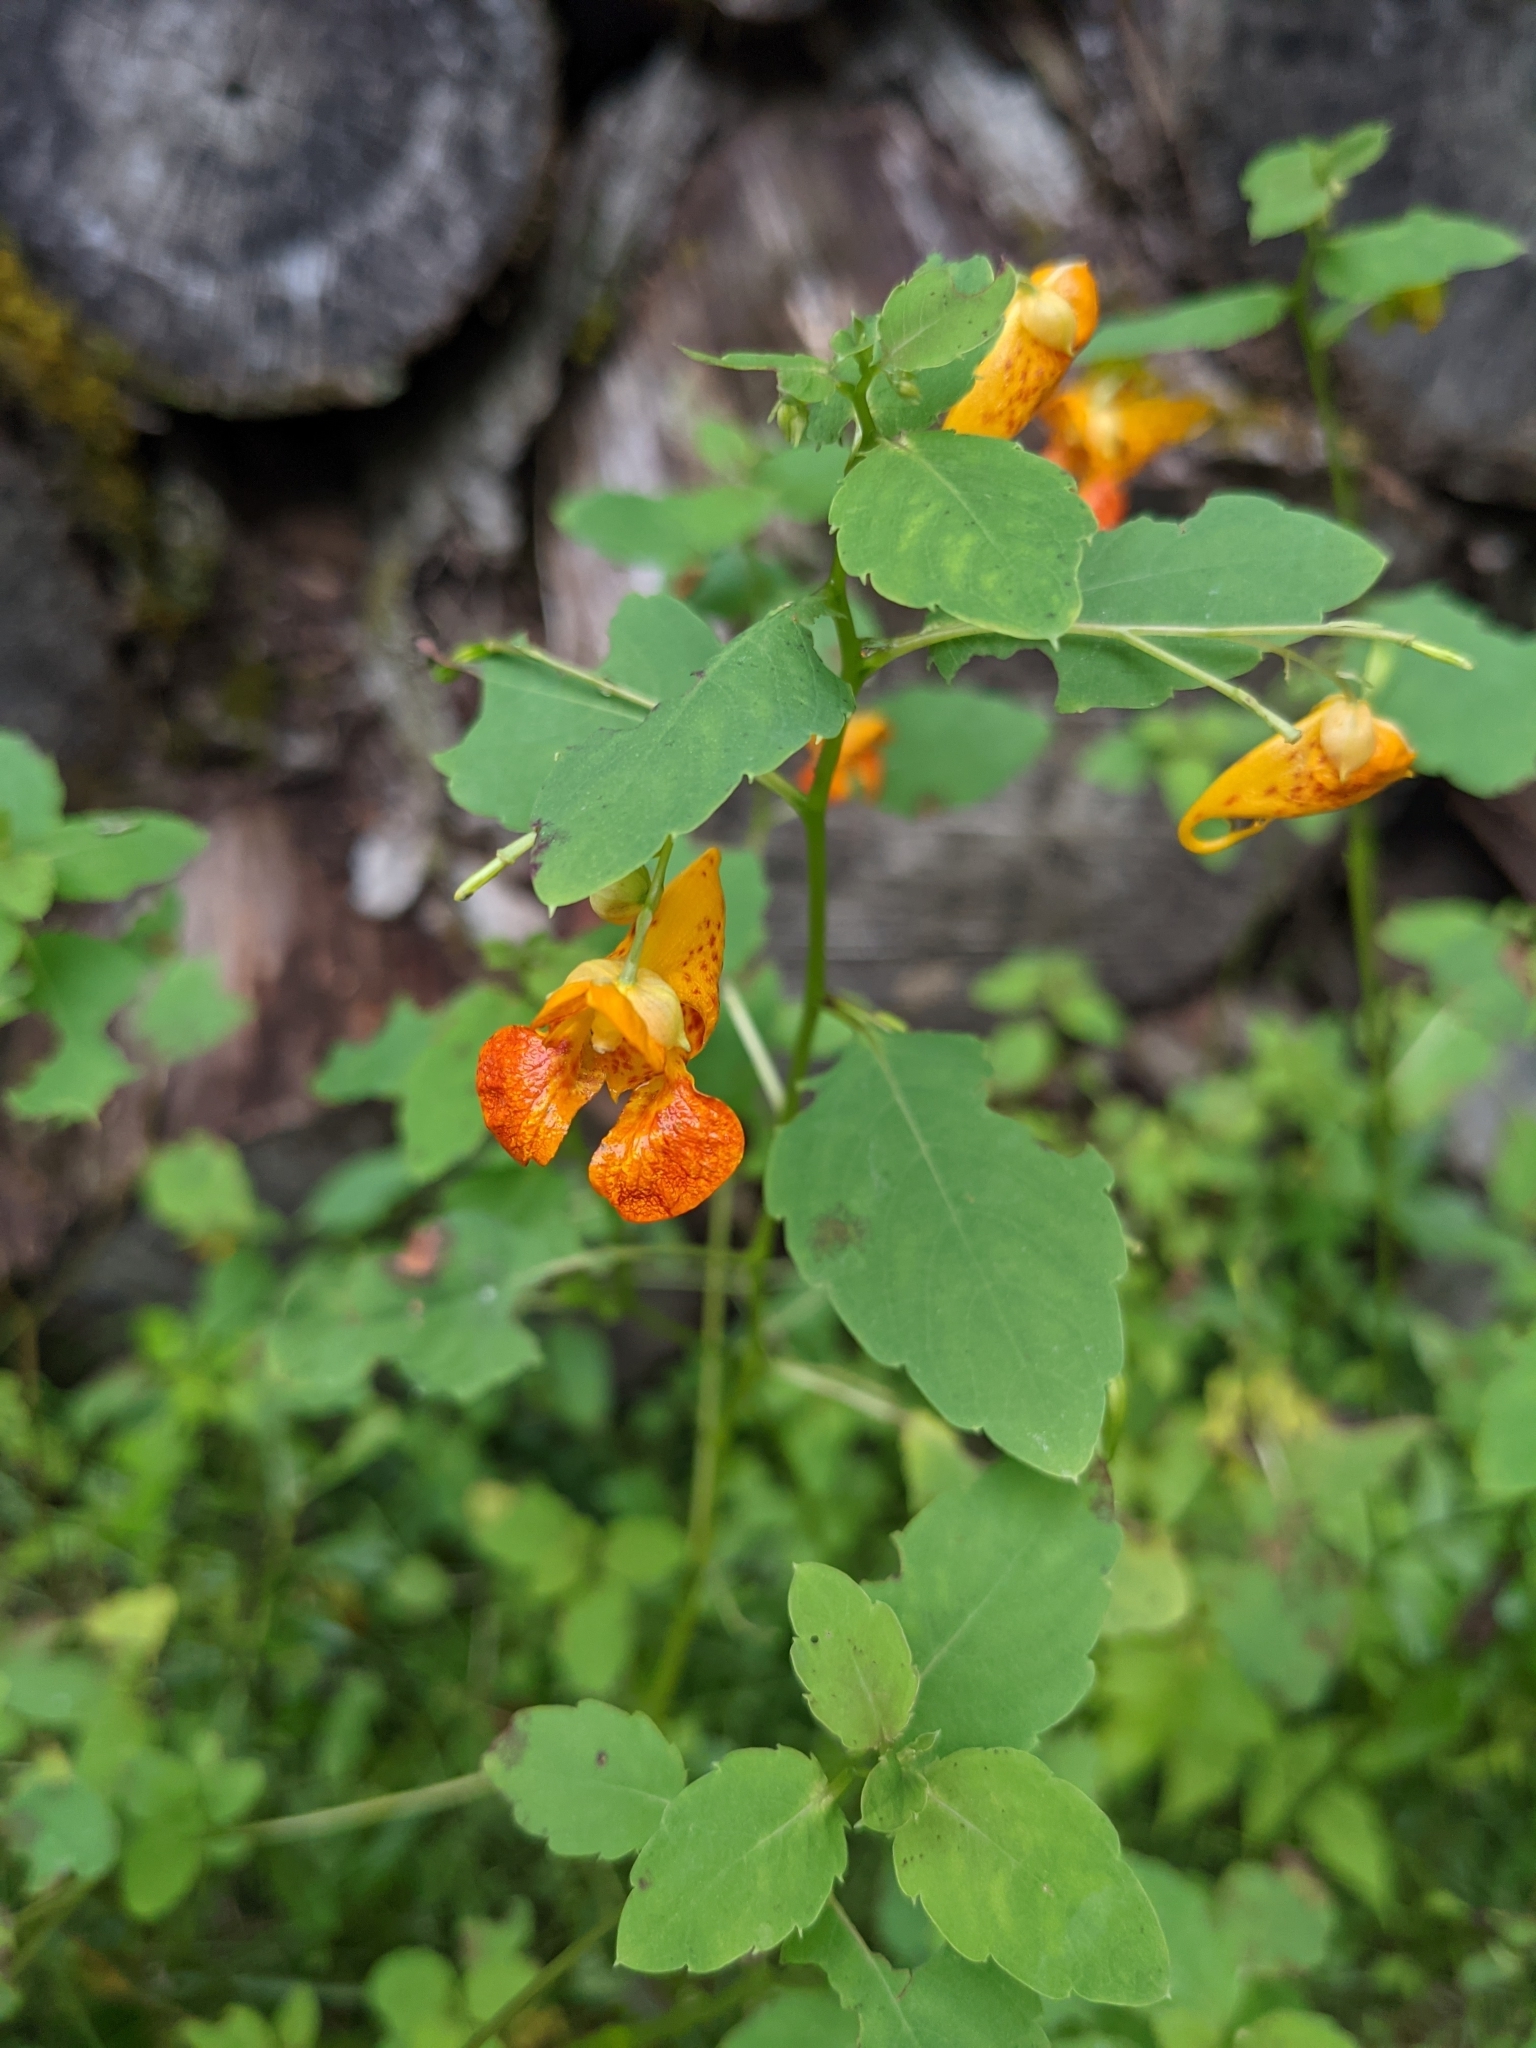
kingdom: Plantae
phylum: Tracheophyta
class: Magnoliopsida
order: Ericales
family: Balsaminaceae
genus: Impatiens
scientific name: Impatiens capensis
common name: Orange balsam
